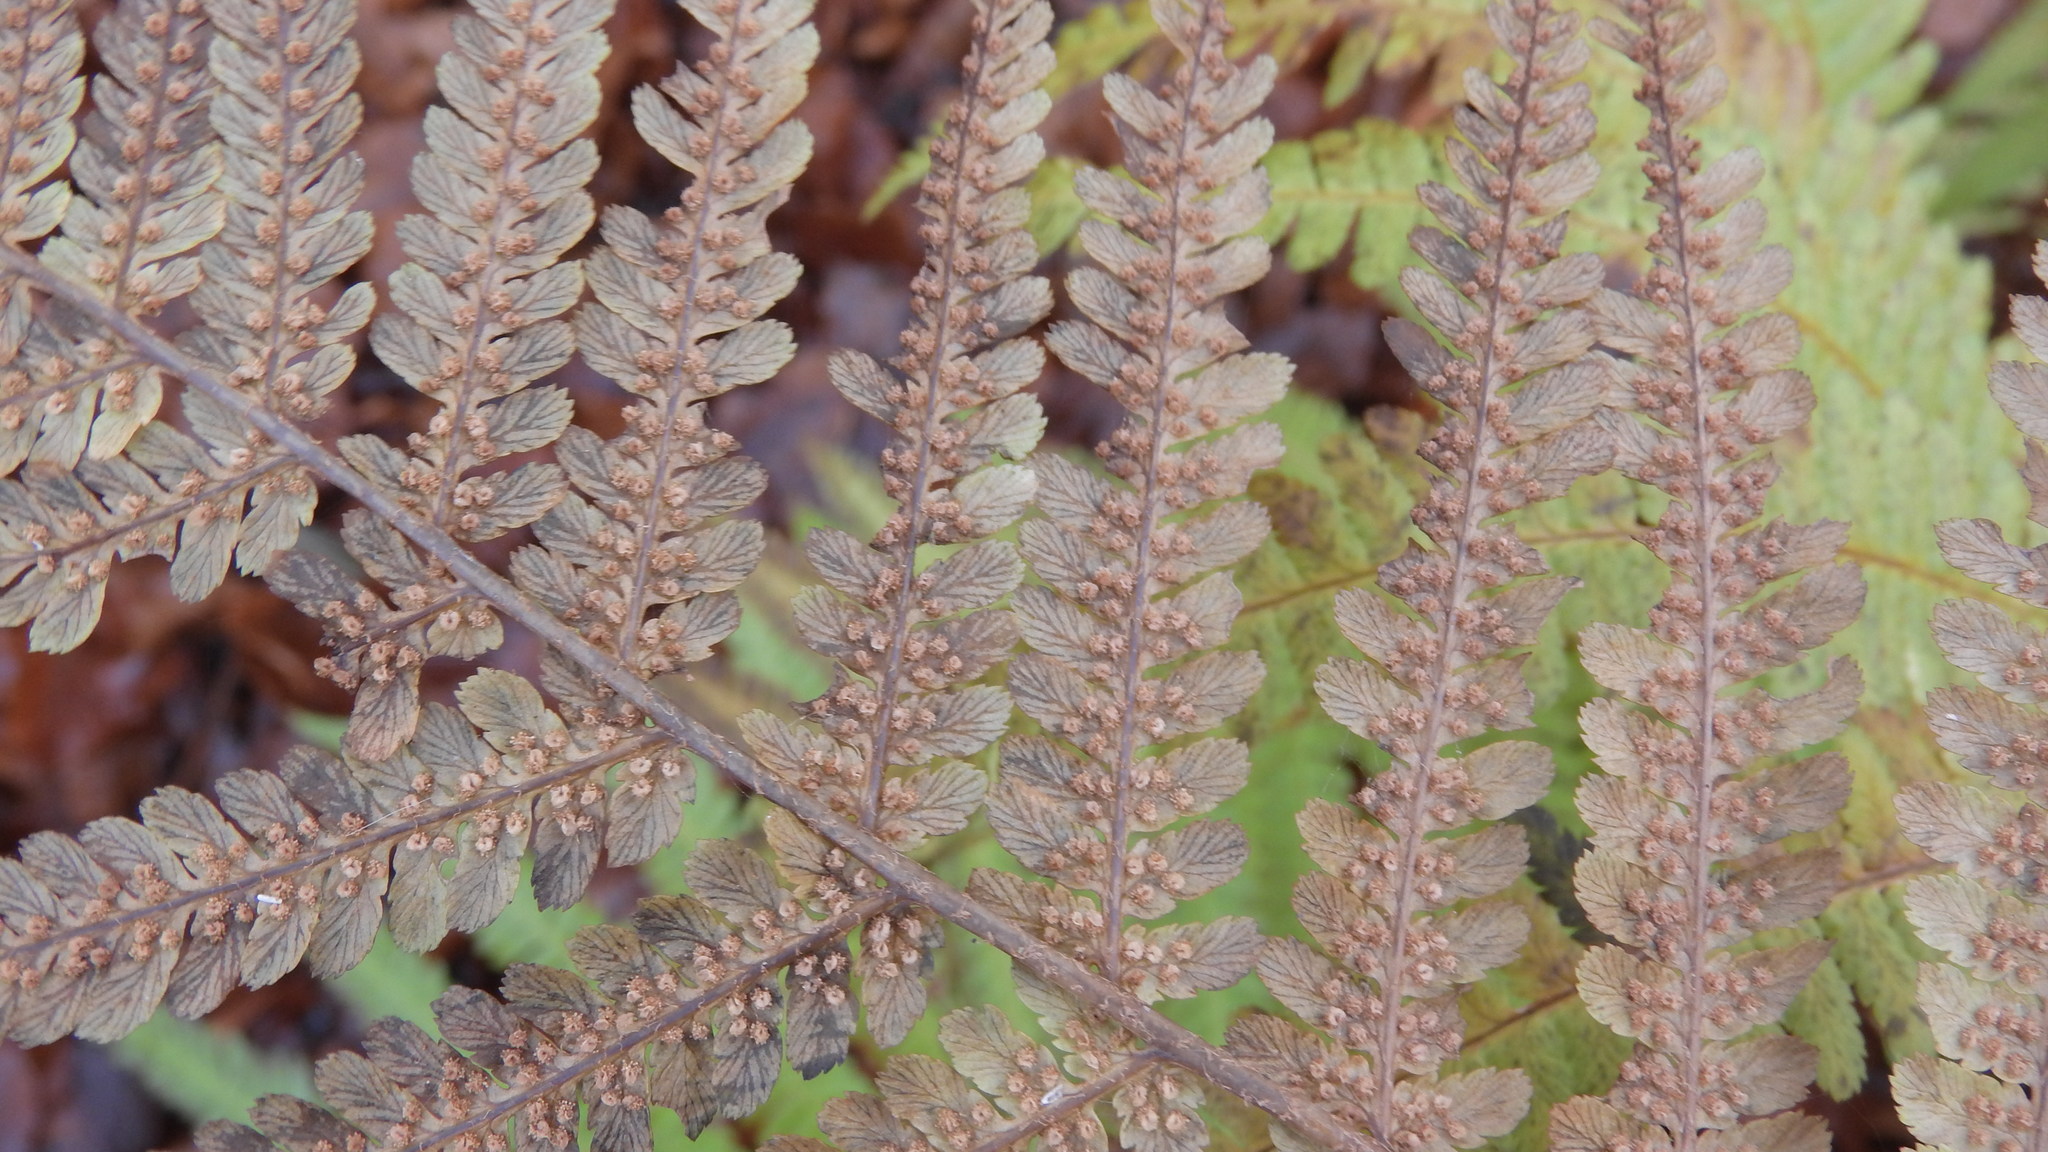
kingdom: Plantae
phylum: Tracheophyta
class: Polypodiopsida
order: Polypodiales
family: Dryopteridaceae
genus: Dryopteris
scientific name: Dryopteris filix-mas
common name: Male fern
